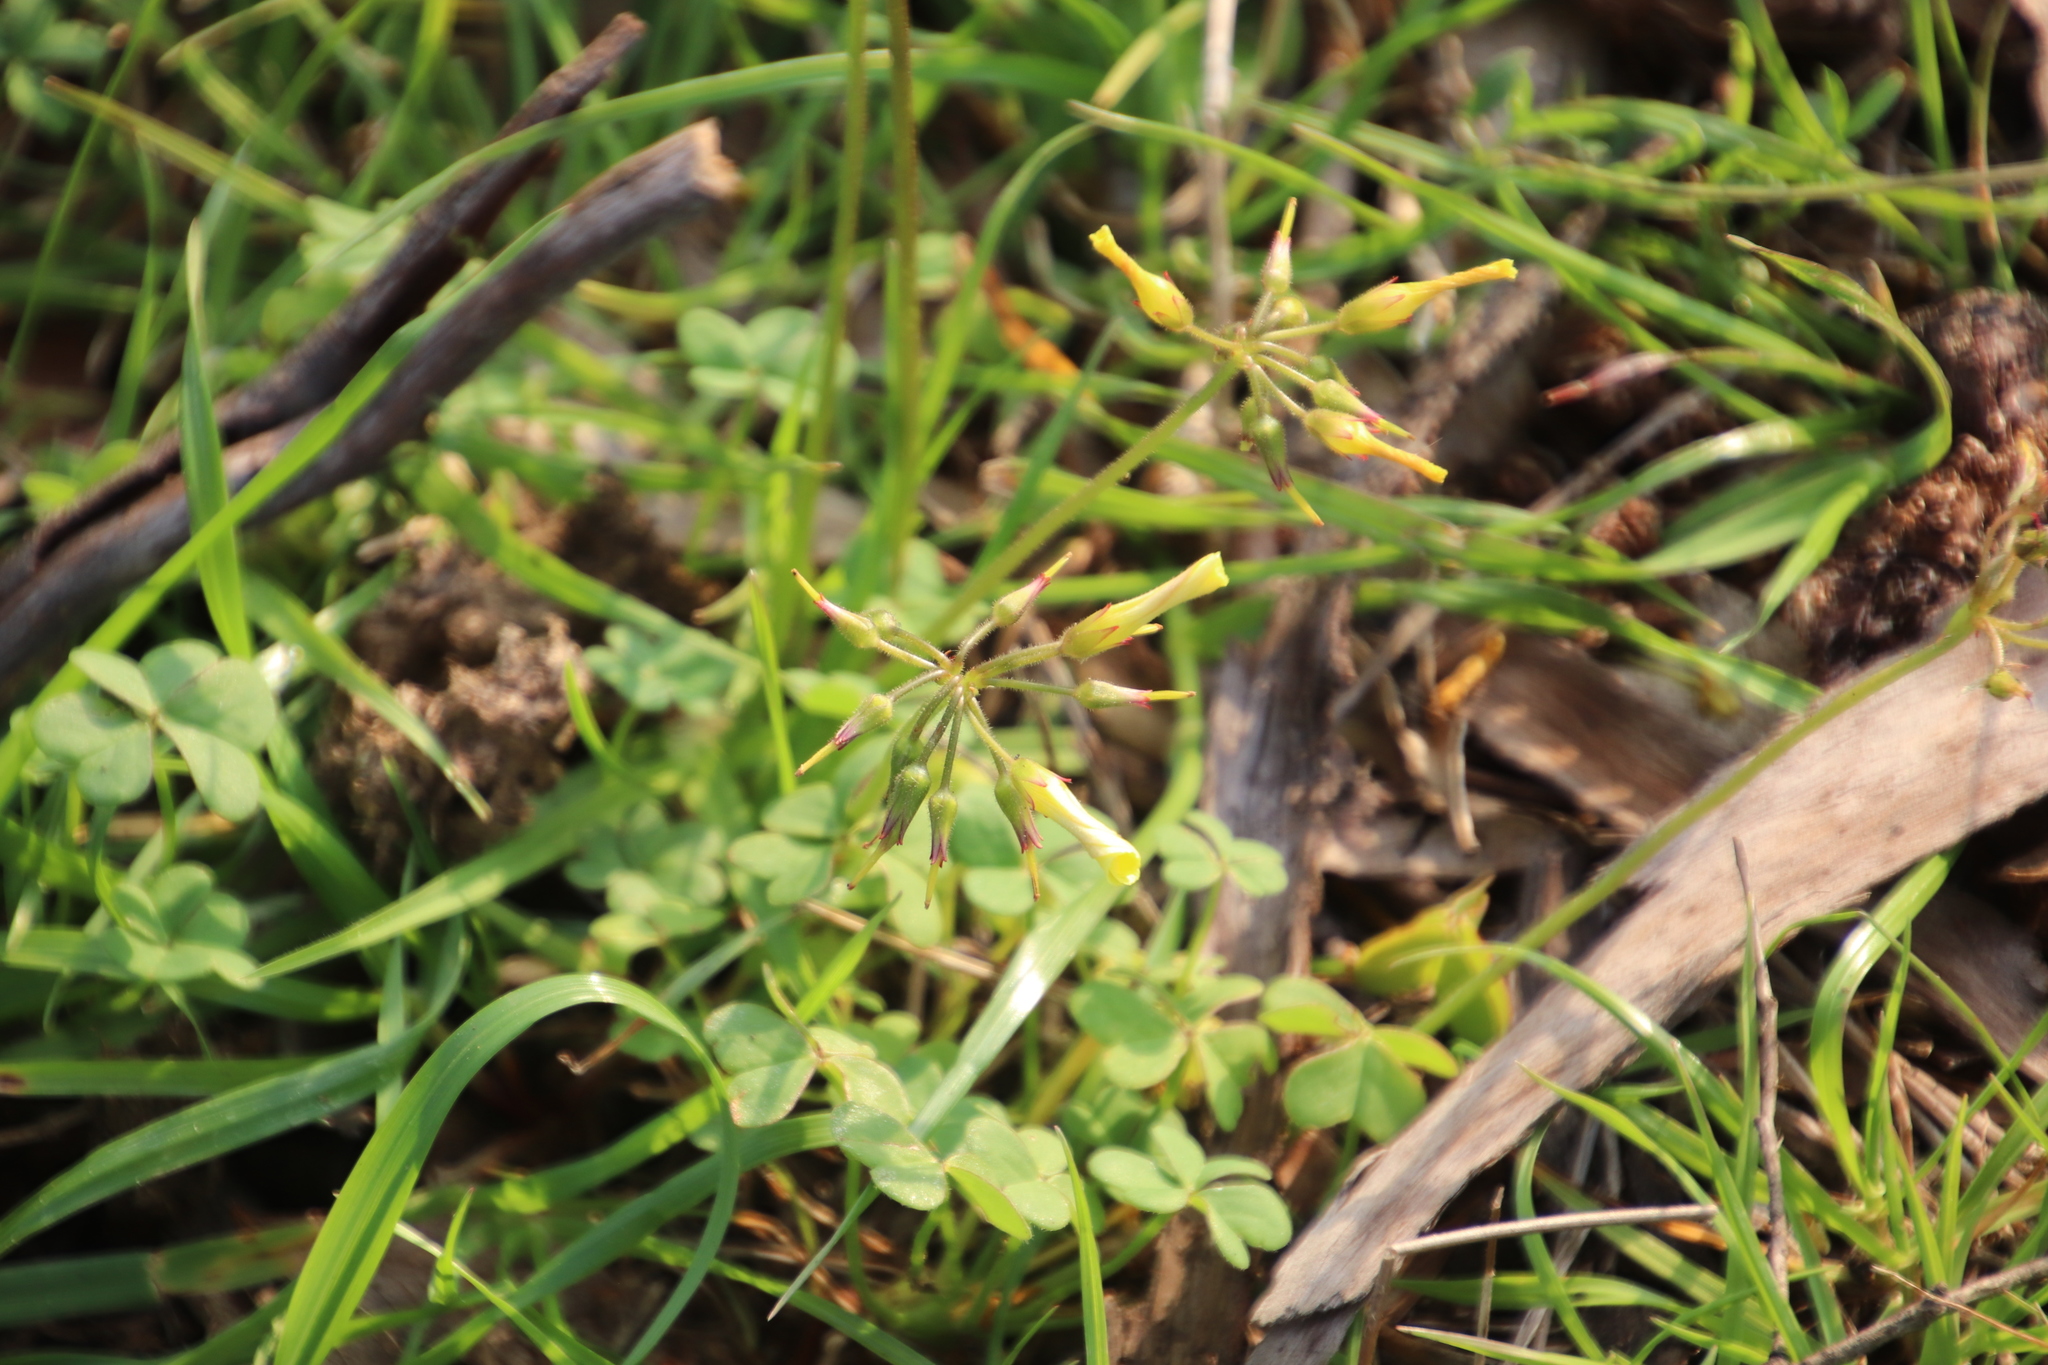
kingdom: Plantae
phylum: Tracheophyta
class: Magnoliopsida
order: Oxalidales
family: Oxalidaceae
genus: Oxalis
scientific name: Oxalis pes-caprae
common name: Bermuda-buttercup
